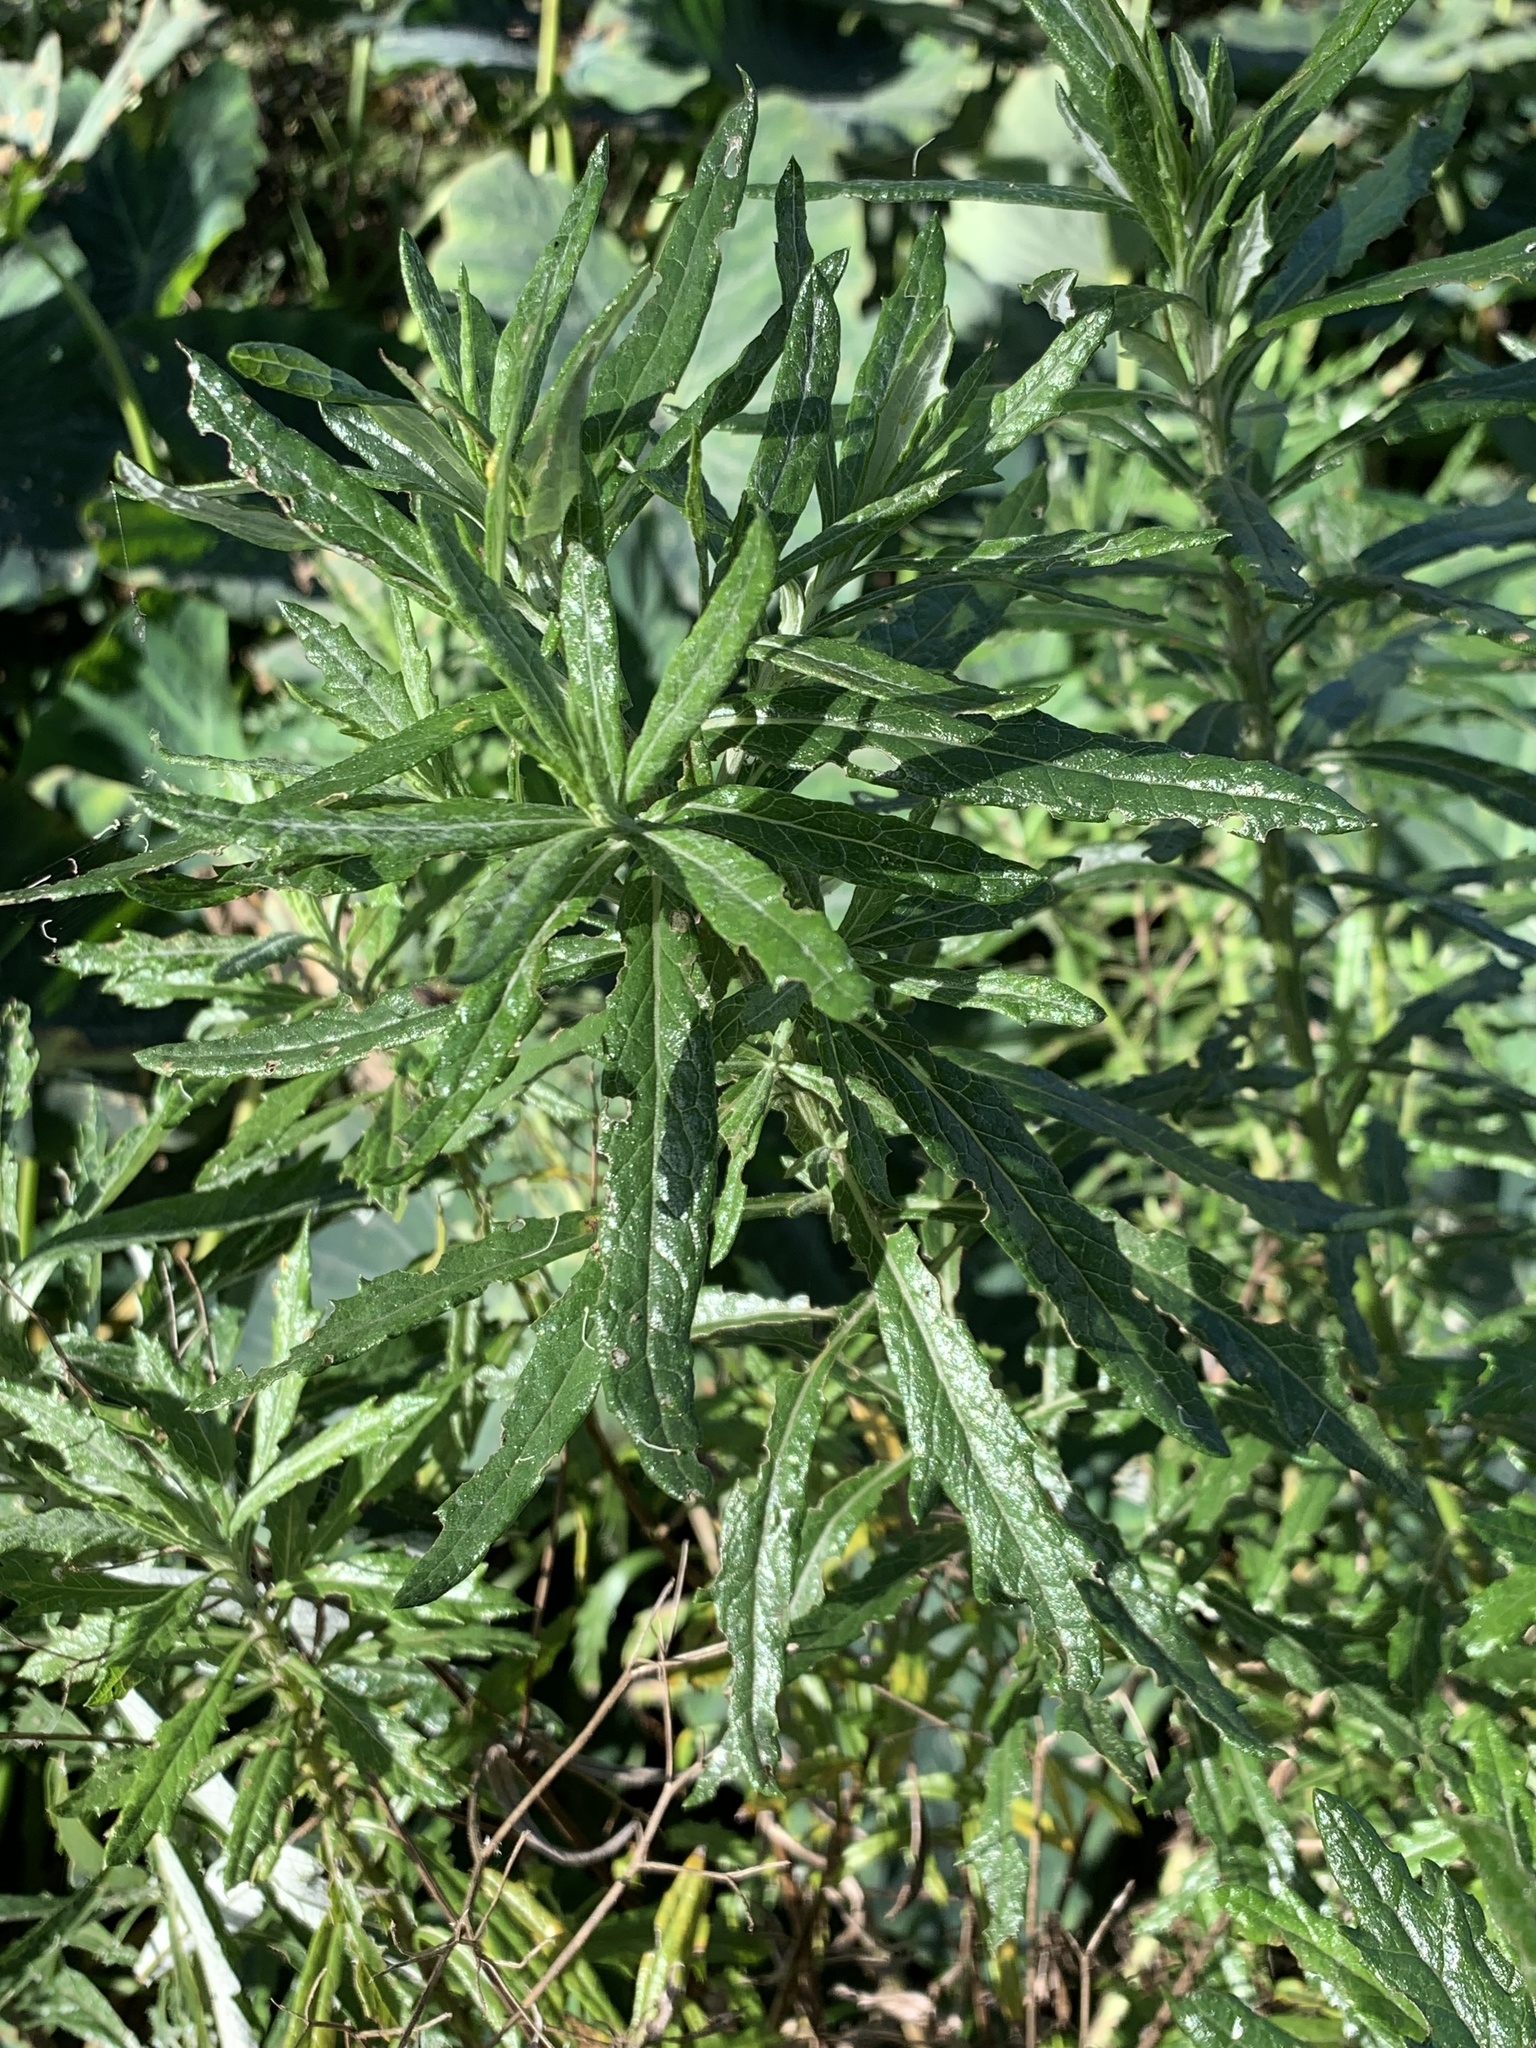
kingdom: Plantae
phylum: Tracheophyta
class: Magnoliopsida
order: Asterales
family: Asteraceae
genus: Senecio
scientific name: Senecio pterophorus
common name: Shoddy ragwort
